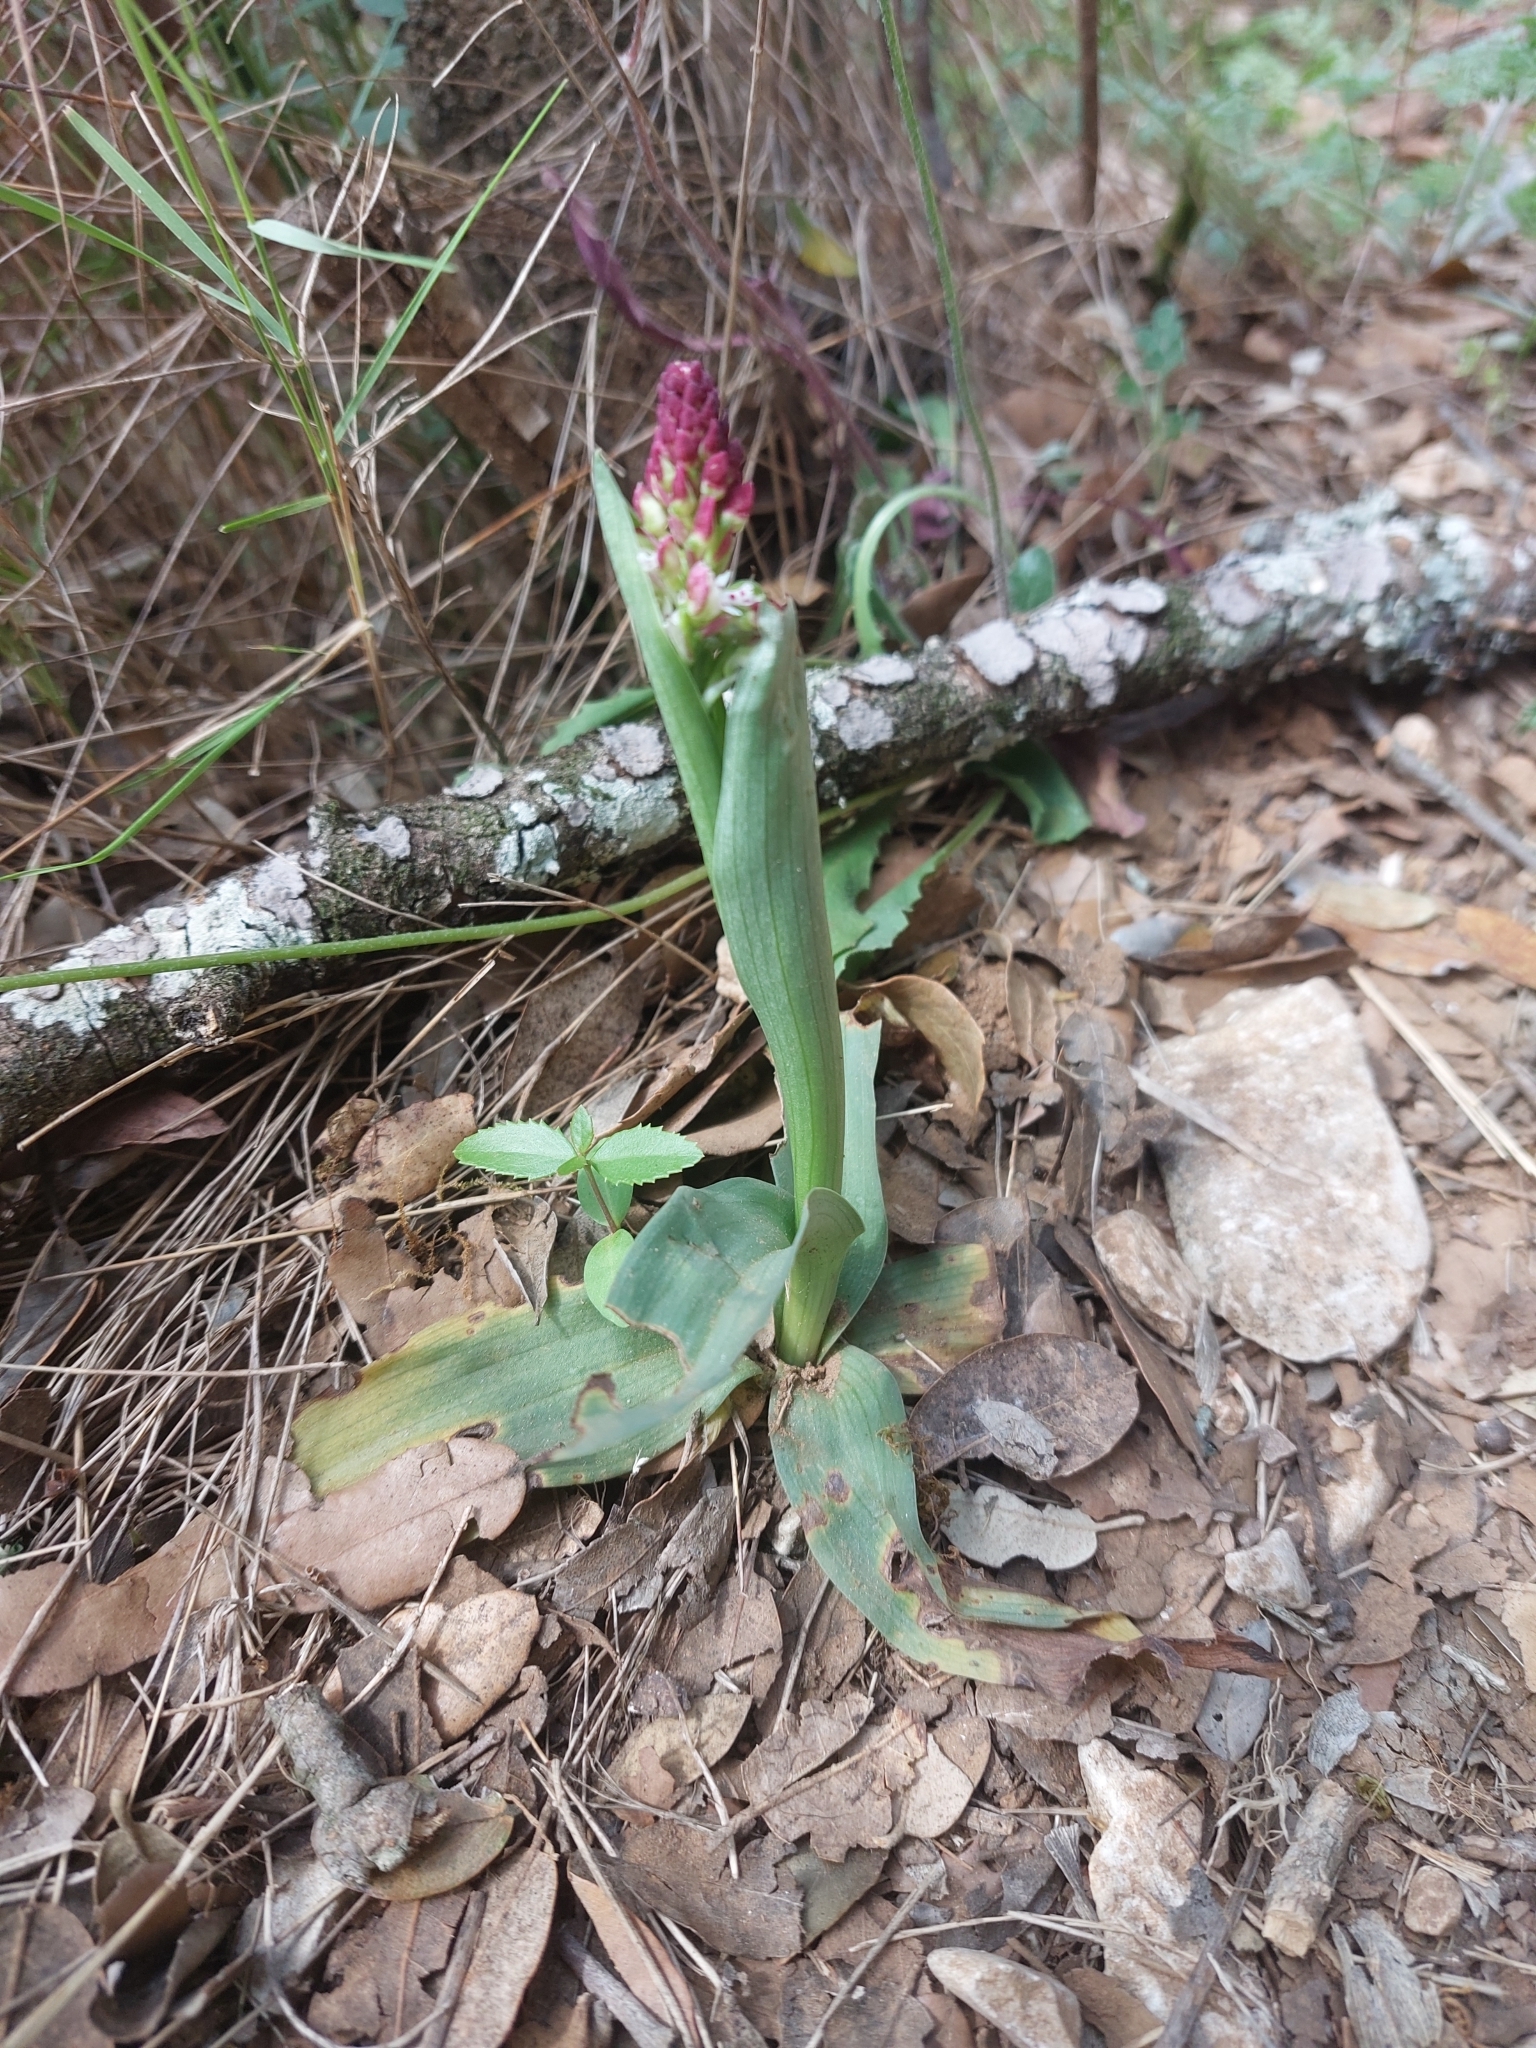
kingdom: Plantae
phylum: Tracheophyta
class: Liliopsida
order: Asparagales
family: Orchidaceae
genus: Neotinea
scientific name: Neotinea ustulata
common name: Burnt orchid
